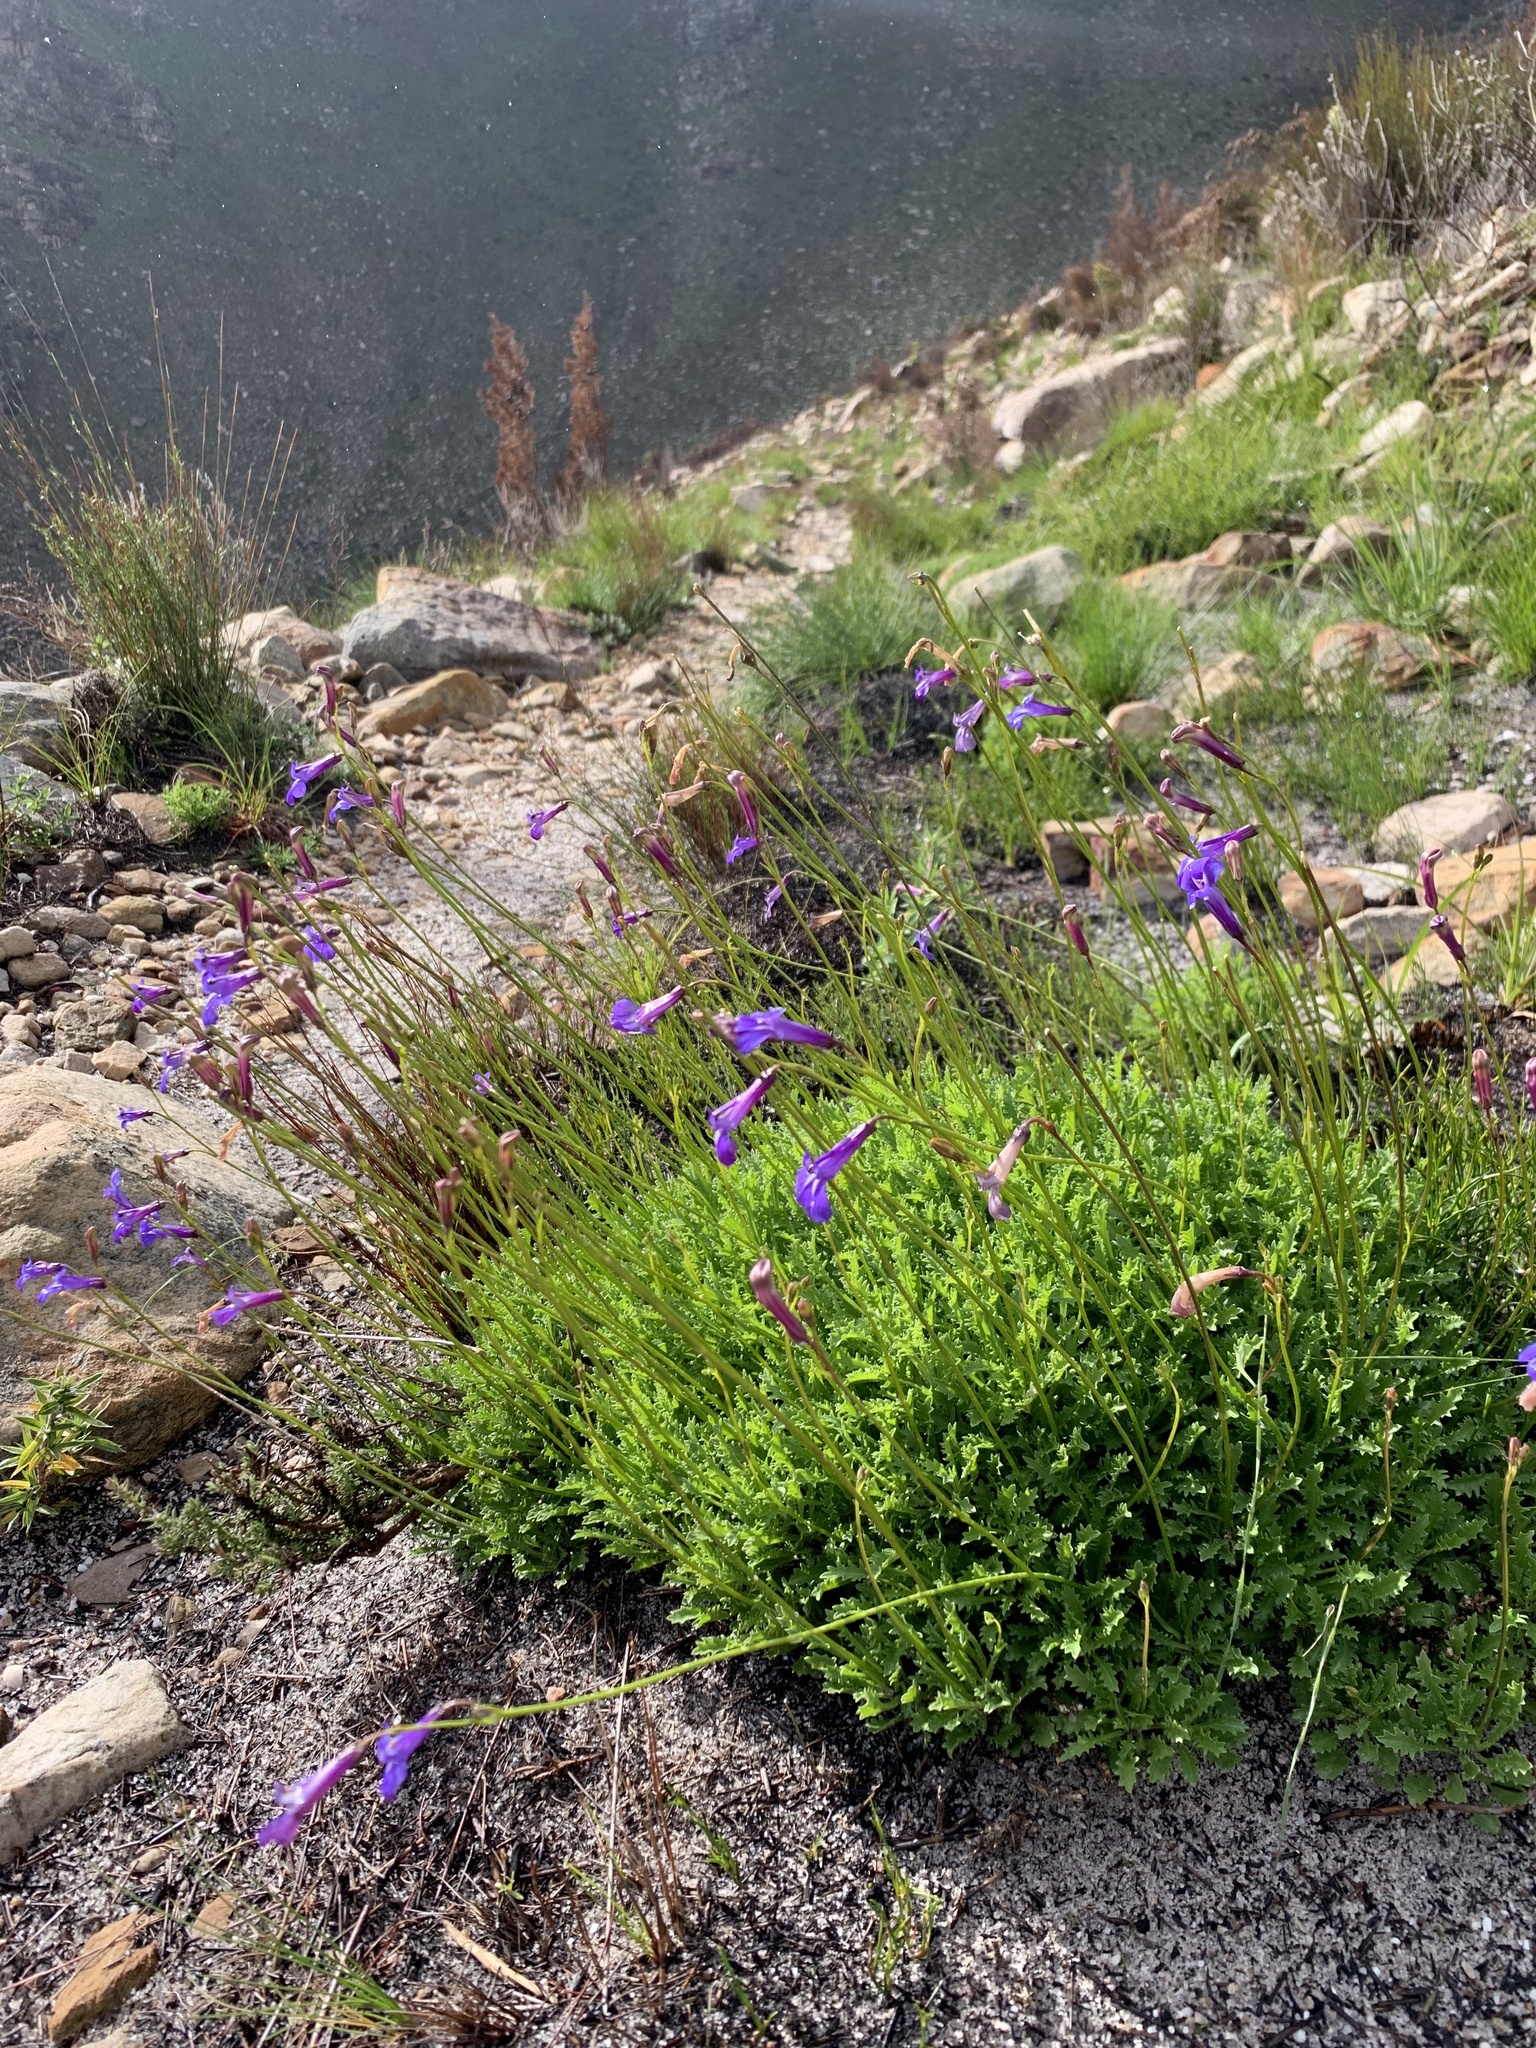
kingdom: Plantae
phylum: Tracheophyta
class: Magnoliopsida
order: Asterales
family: Campanulaceae
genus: Lobelia
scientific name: Lobelia coronopifolia
